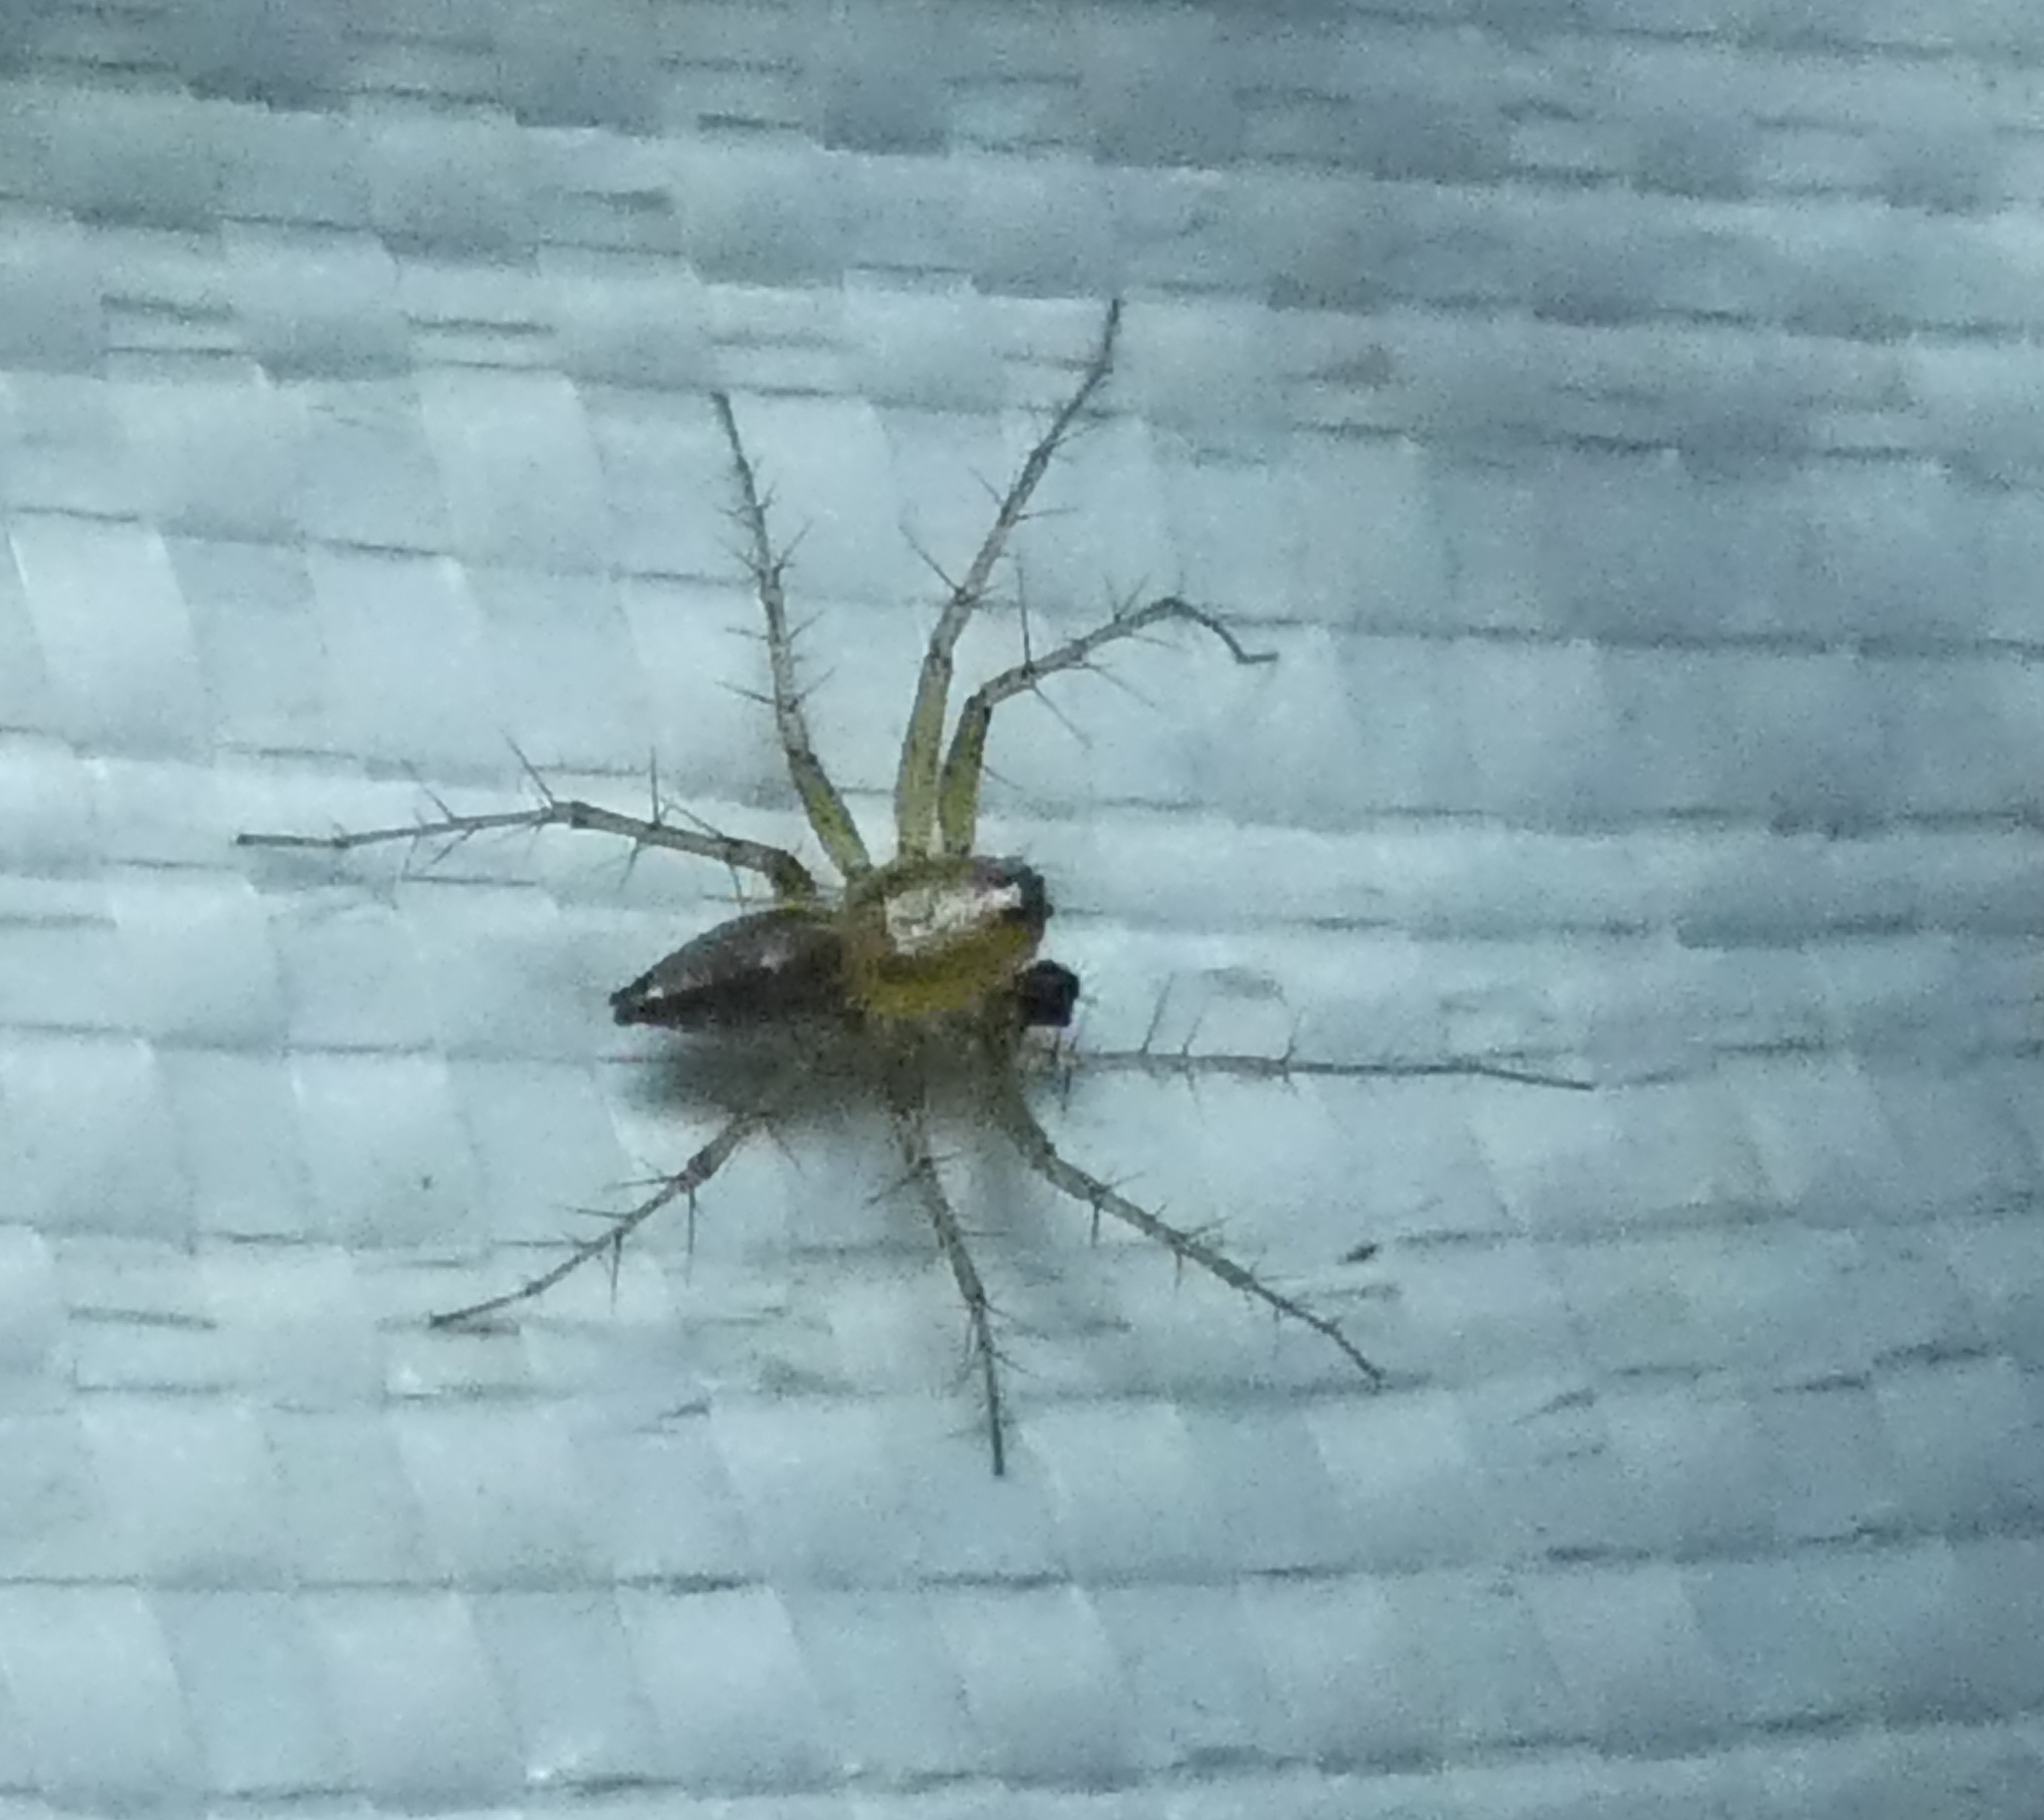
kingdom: Animalia
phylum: Arthropoda
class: Arachnida
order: Araneae
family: Oxyopidae
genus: Oxyopes
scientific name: Oxyopes salticus
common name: Lynx spiders
